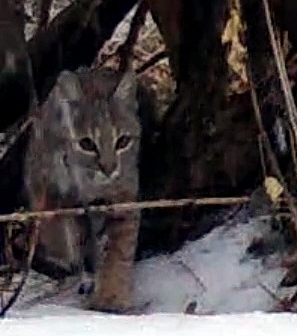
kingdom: Animalia
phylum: Chordata
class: Mammalia
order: Carnivora
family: Felidae
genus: Lynx
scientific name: Lynx rufus
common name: Bobcat
